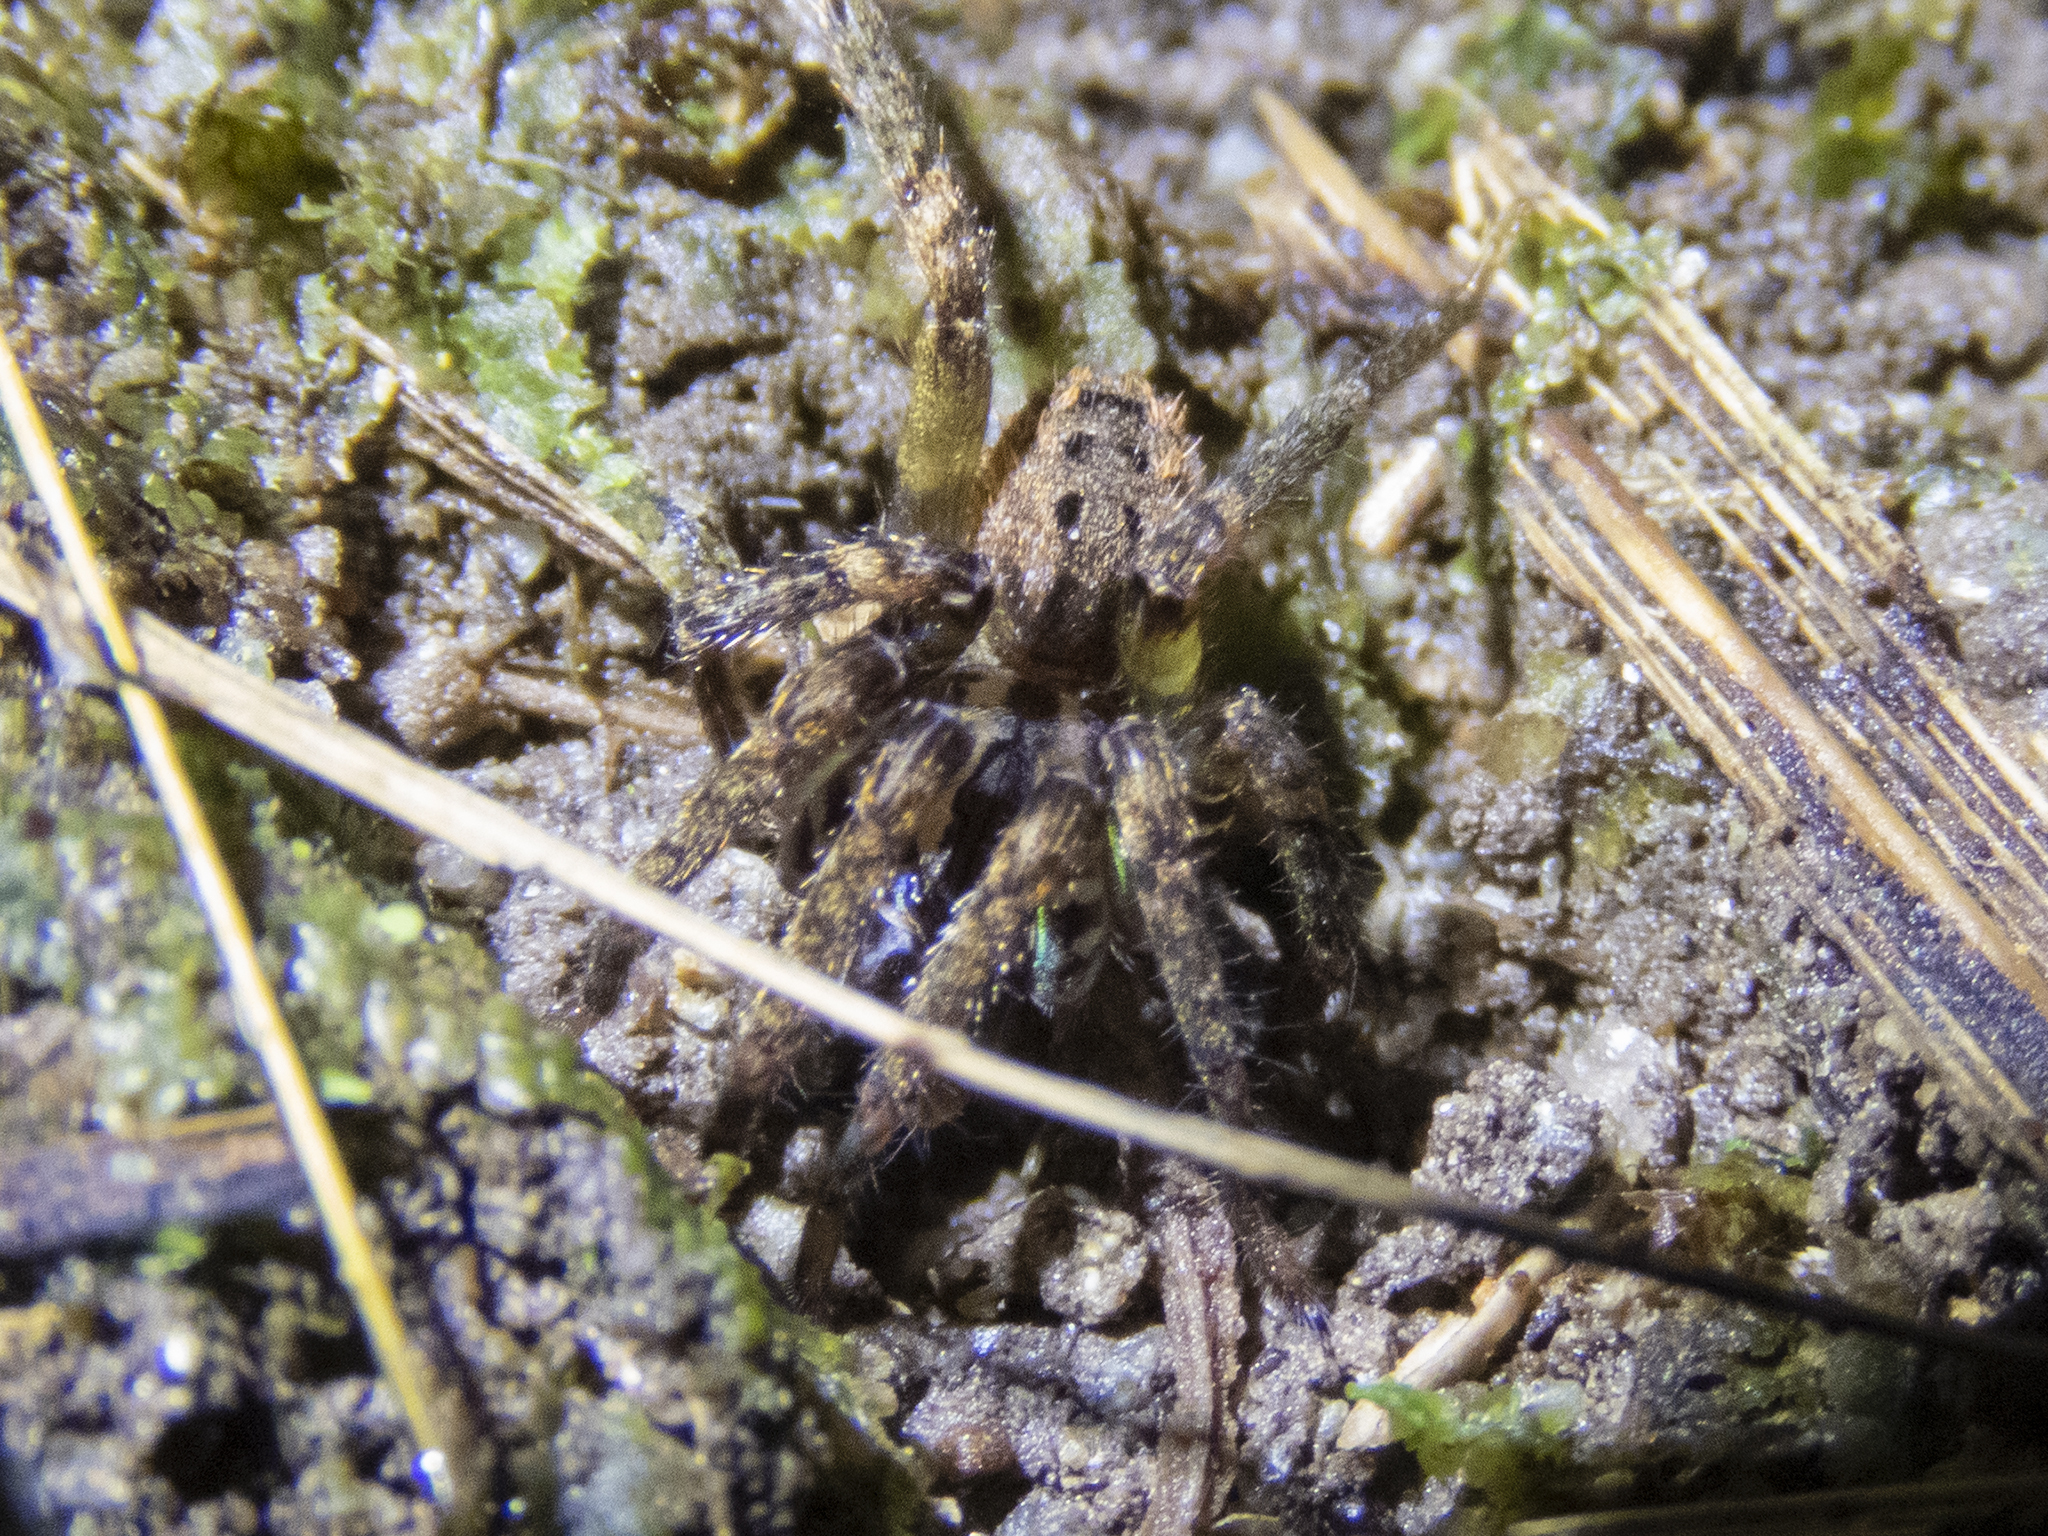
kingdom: Animalia
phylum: Arthropoda
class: Arachnida
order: Araneae
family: Gradungulidae
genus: Gradungula
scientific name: Gradungula sorenseni
